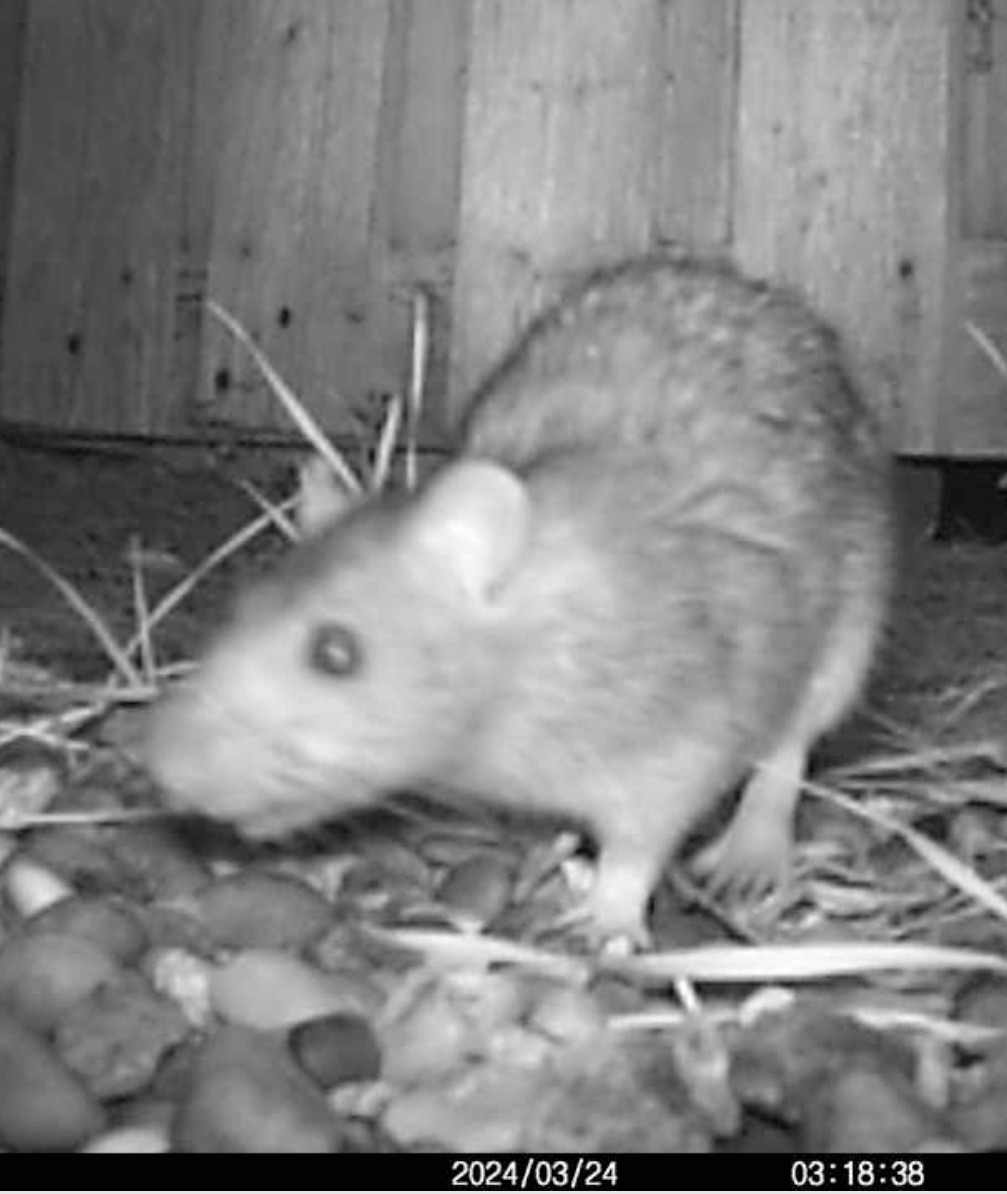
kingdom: Animalia
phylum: Chordata
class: Mammalia
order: Rodentia
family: Muridae
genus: Rattus
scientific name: Rattus norvegicus
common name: Brown rat
